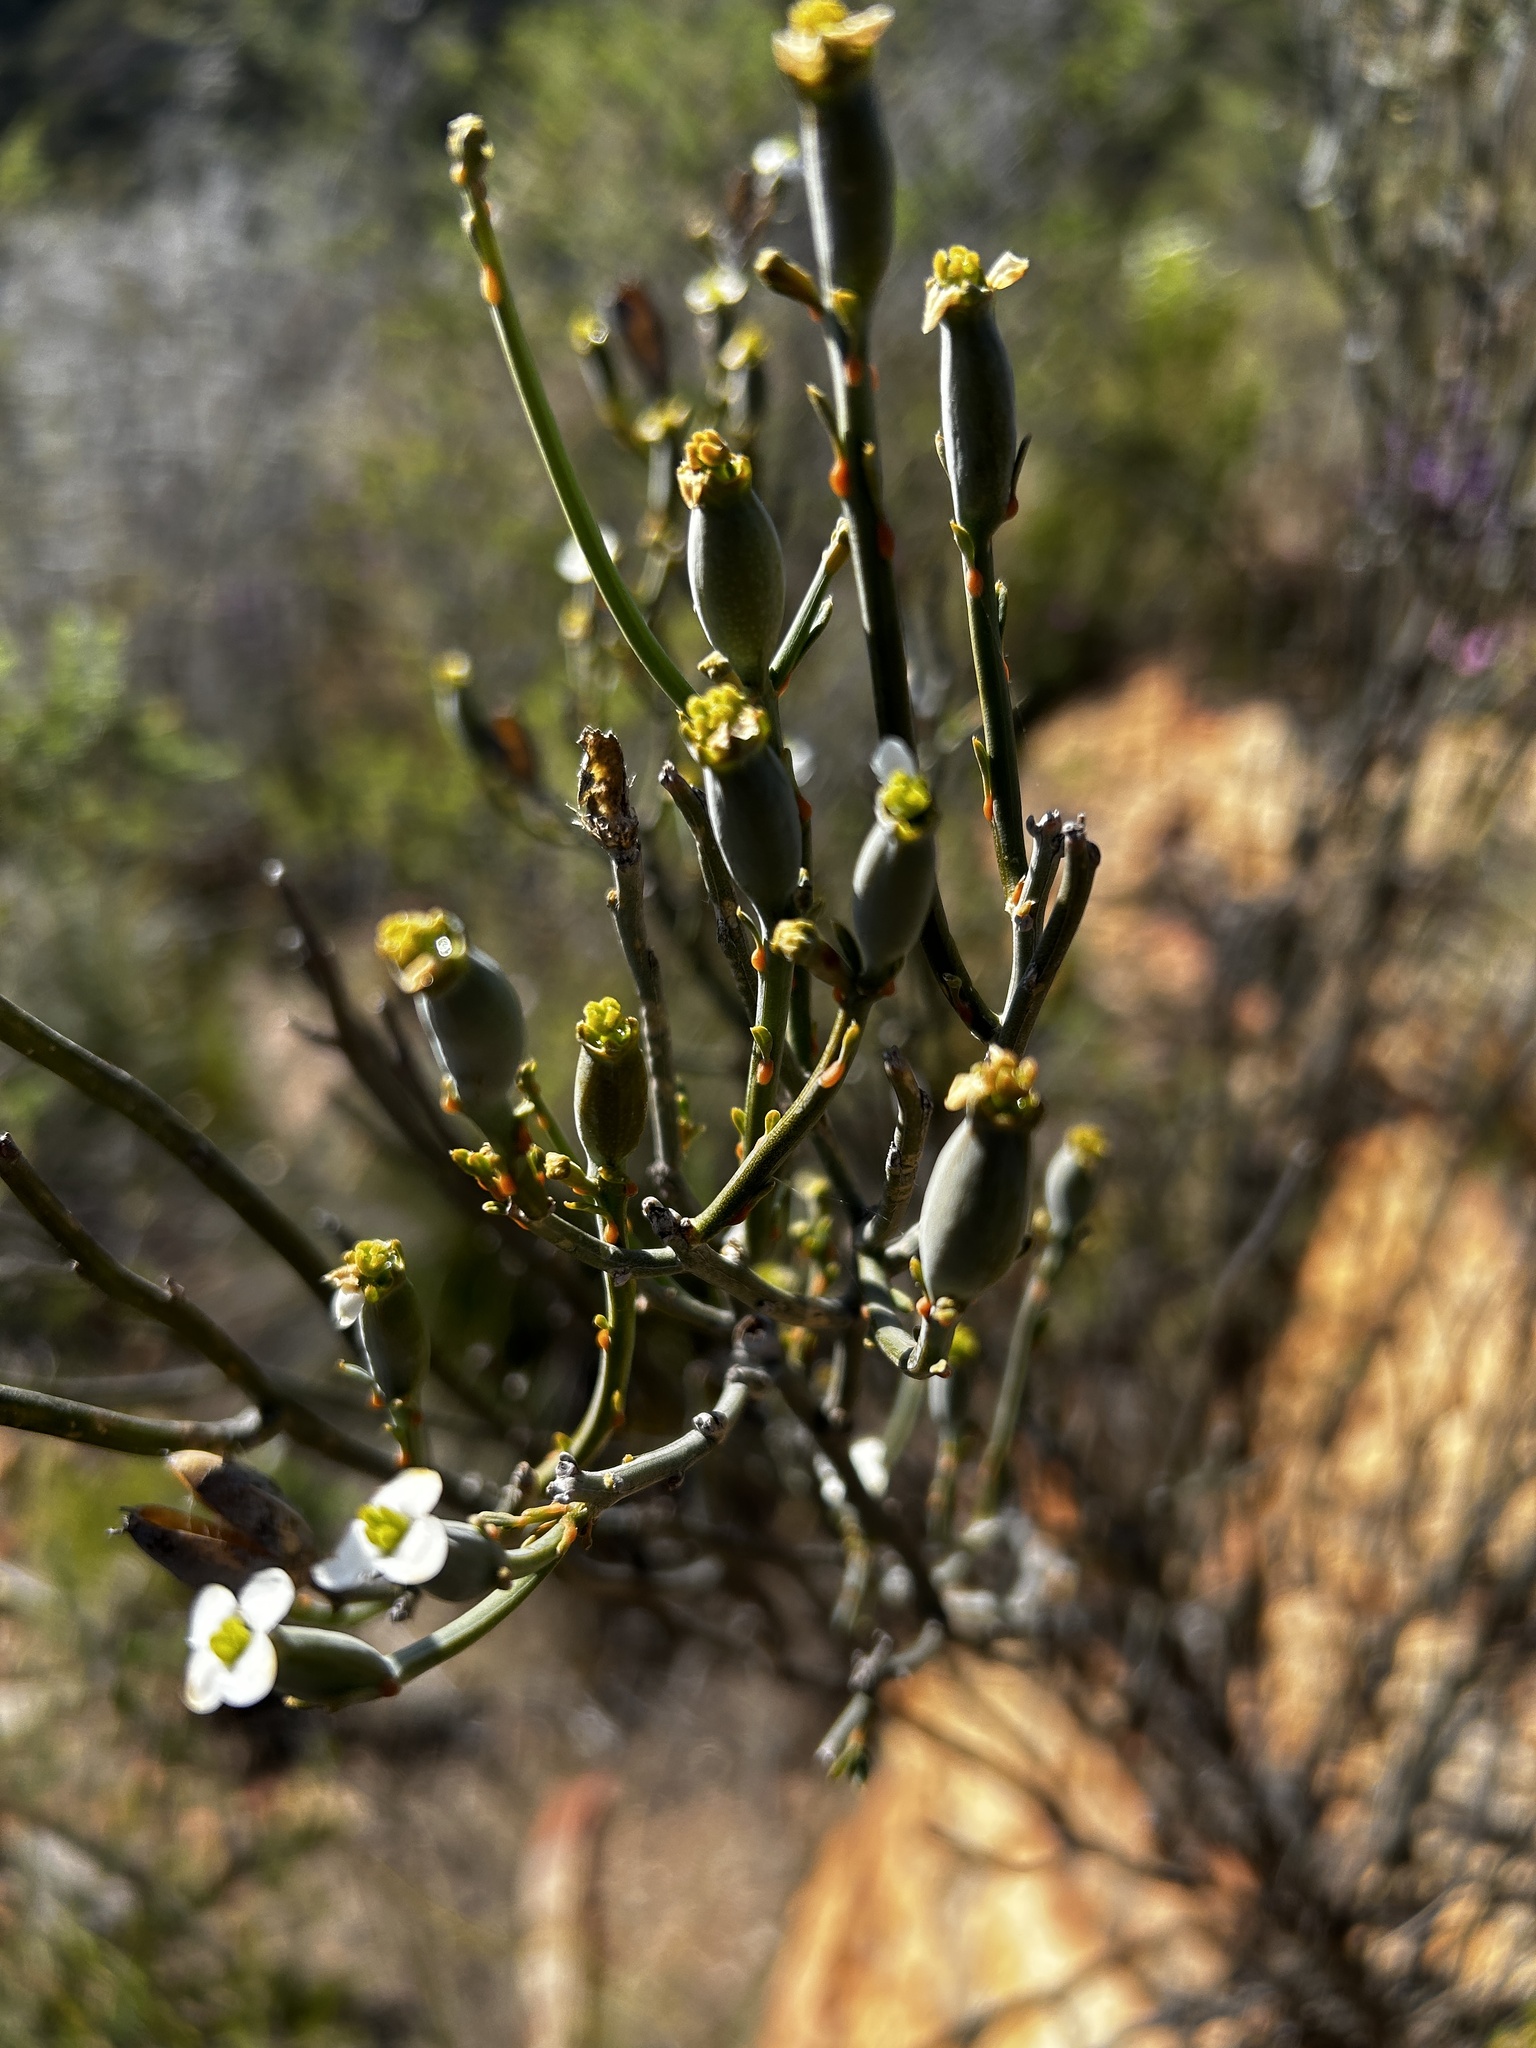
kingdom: Plantae
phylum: Tracheophyta
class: Magnoliopsida
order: Solanales
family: Montiniaceae
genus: Montinia
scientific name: Montinia caryophyllacea
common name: Wild clove-bush
